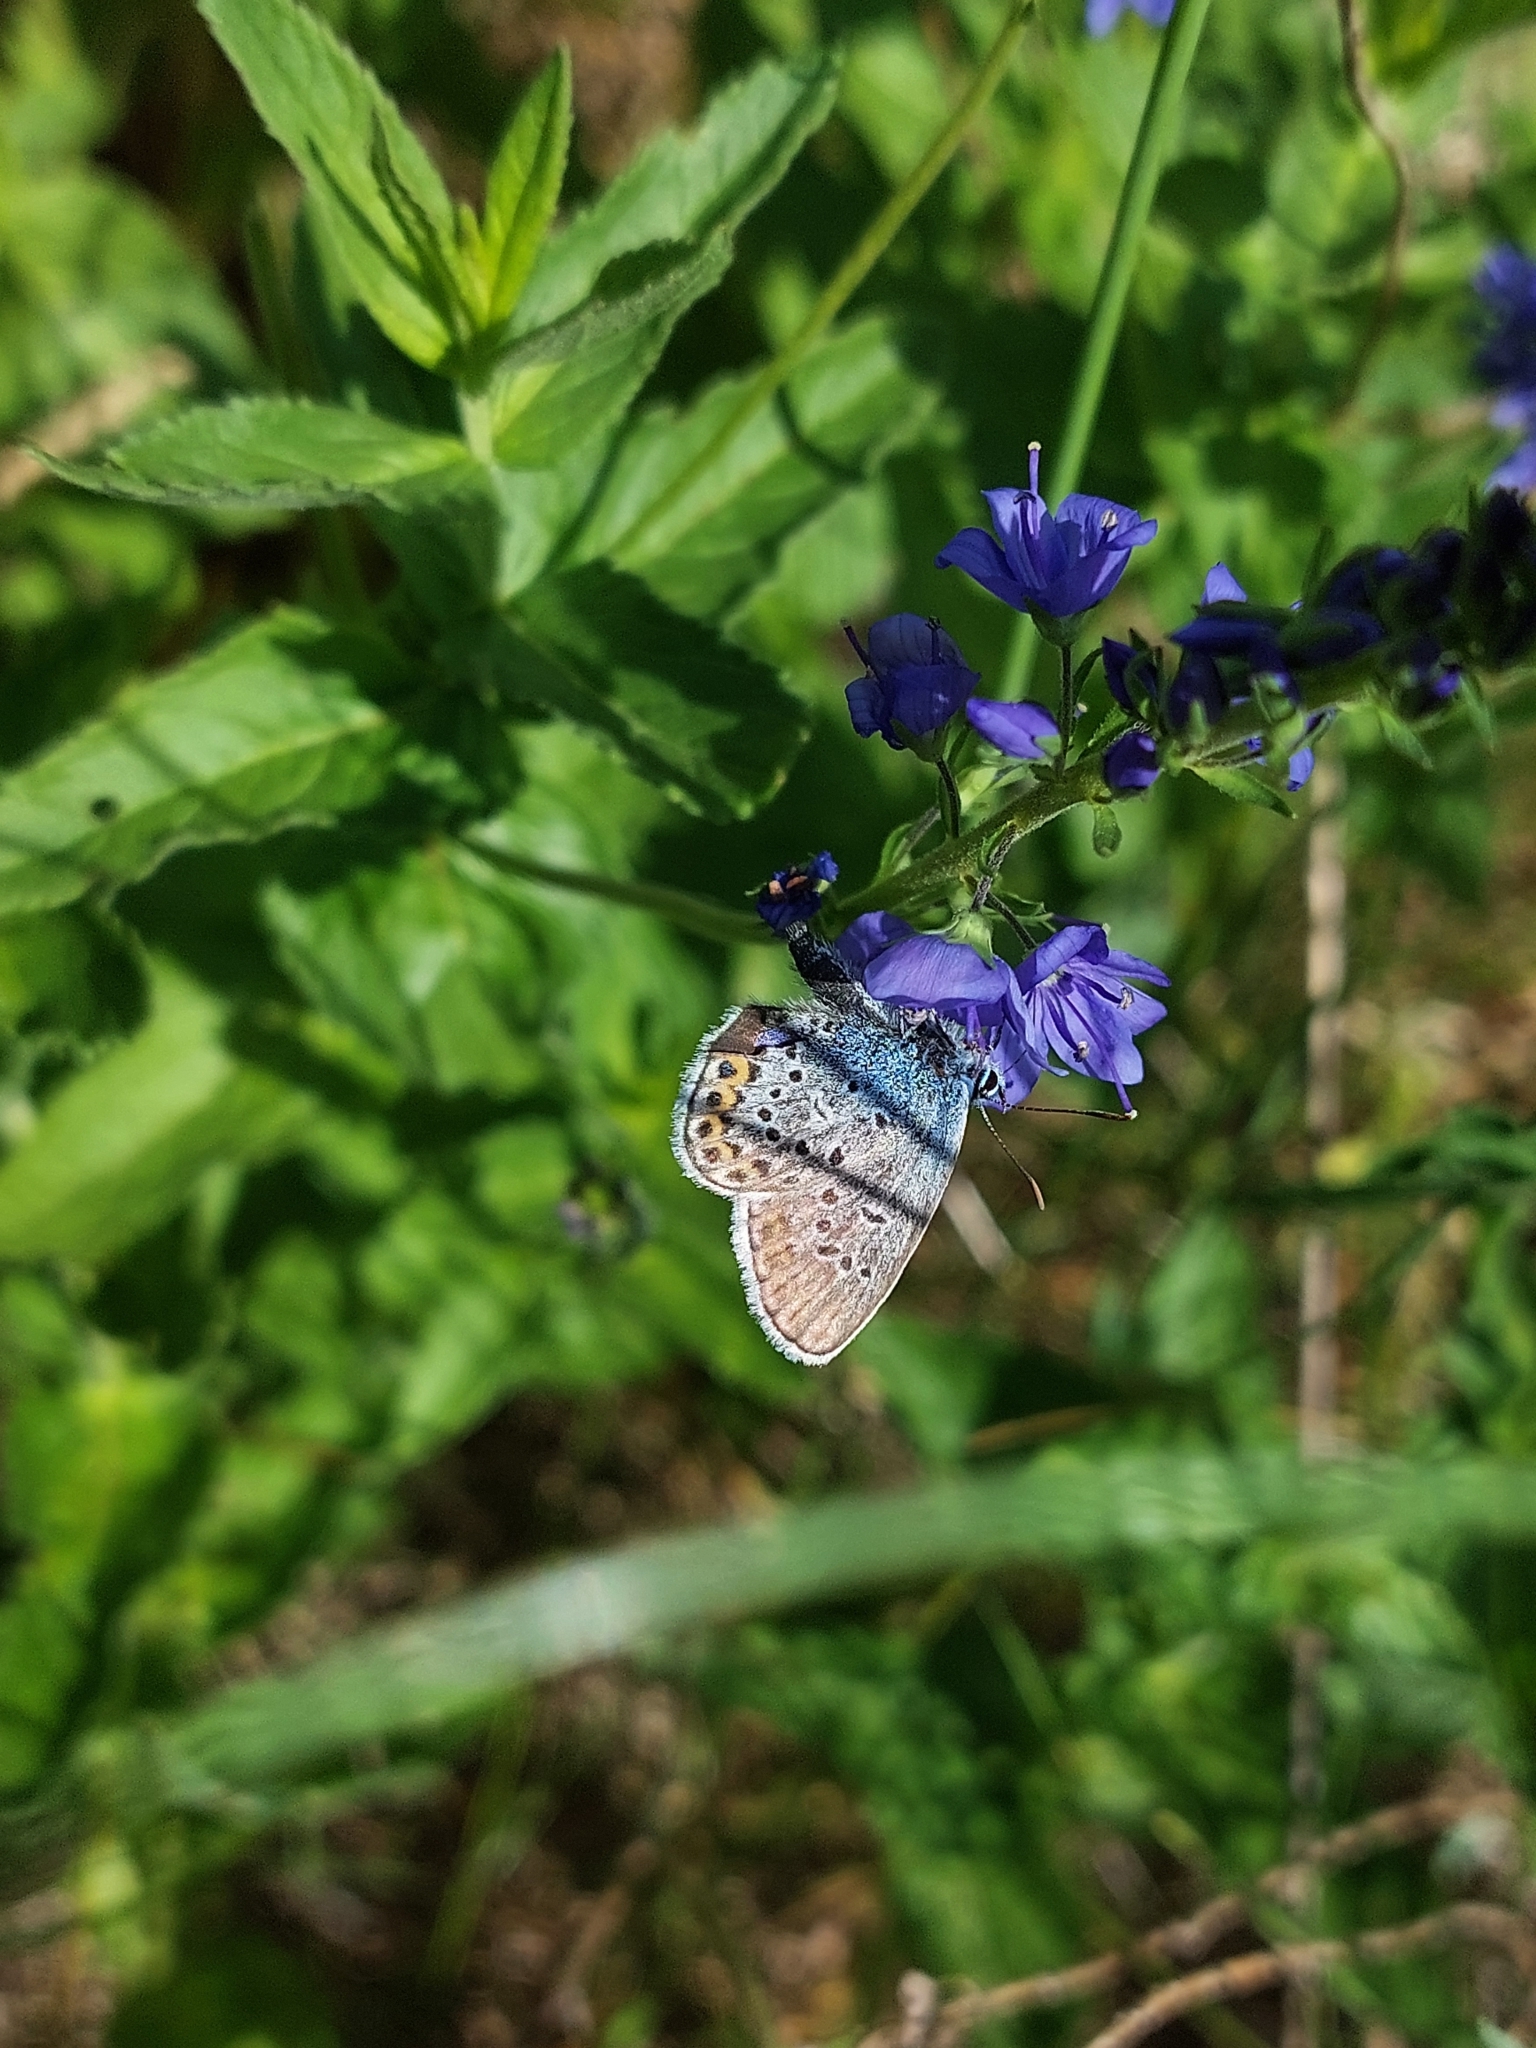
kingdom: Animalia
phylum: Arthropoda
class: Insecta
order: Lepidoptera
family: Lycaenidae
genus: Plebejus
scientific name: Plebejus argus
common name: Silver-studded blue
